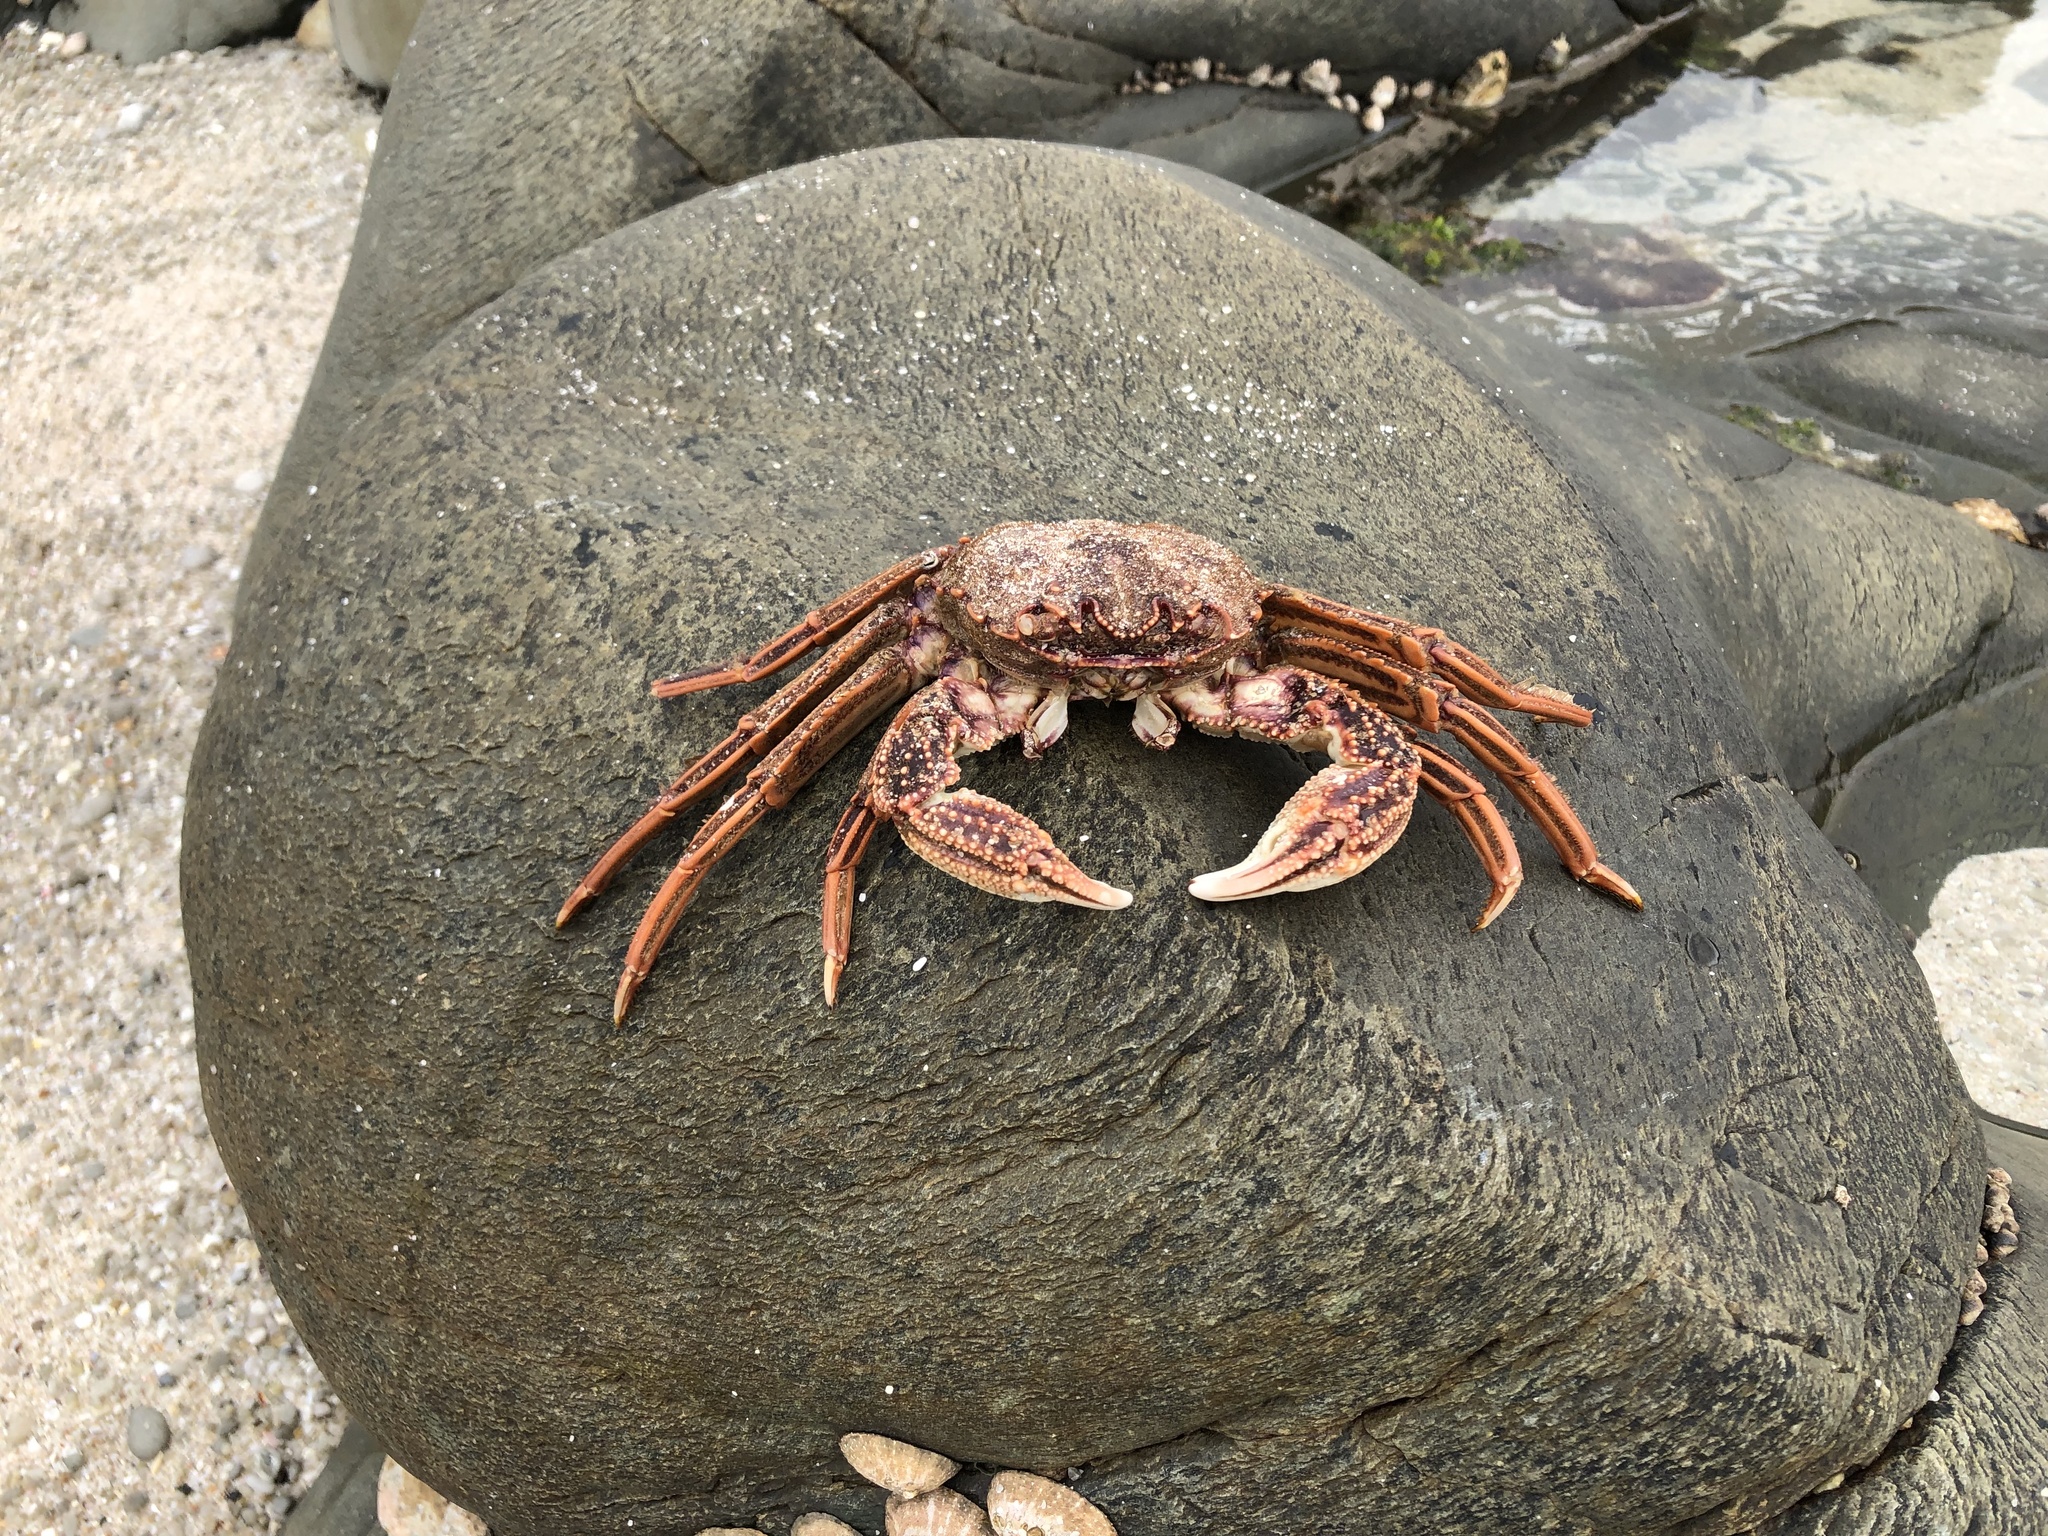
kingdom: Animalia
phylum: Arthropoda
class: Malacostraca
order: Decapoda
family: Plagusiidae
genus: Guinusia
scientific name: Guinusia chabrus
